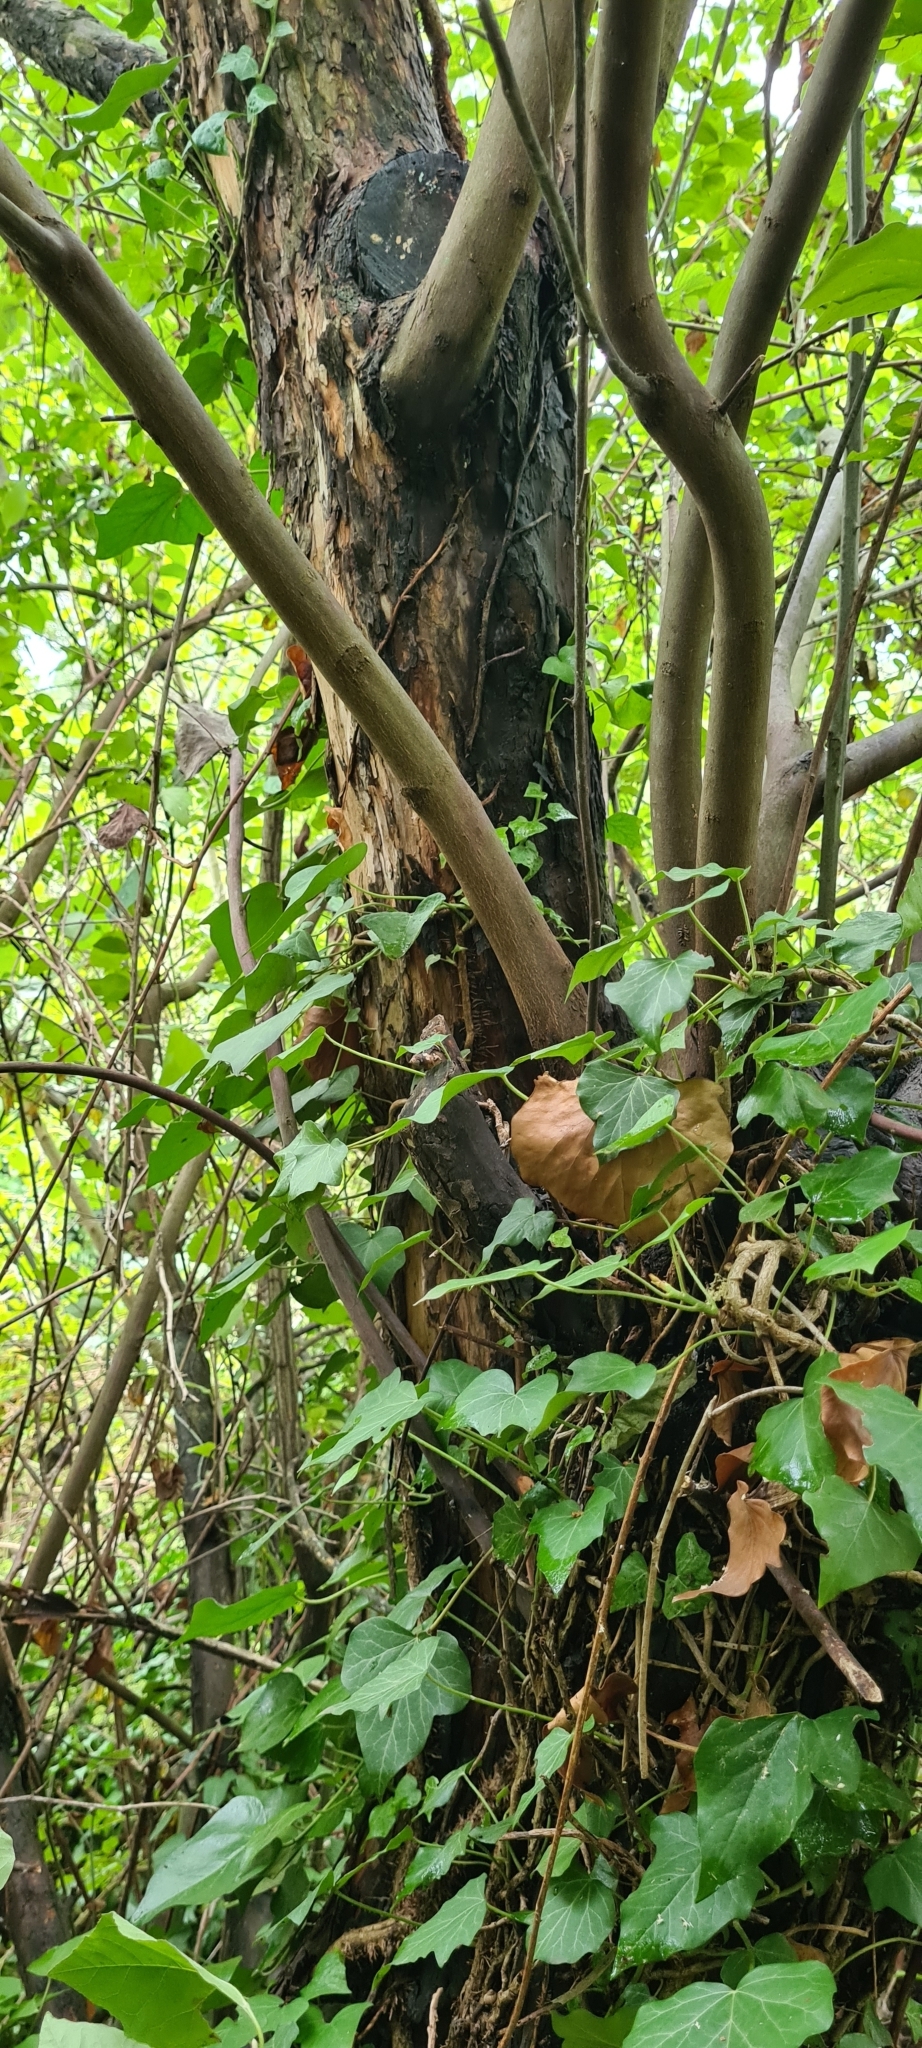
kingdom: Plantae
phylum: Tracheophyta
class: Magnoliopsida
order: Ericales
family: Styracaceae
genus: Styrax
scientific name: Styrax officinalis
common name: Storax
